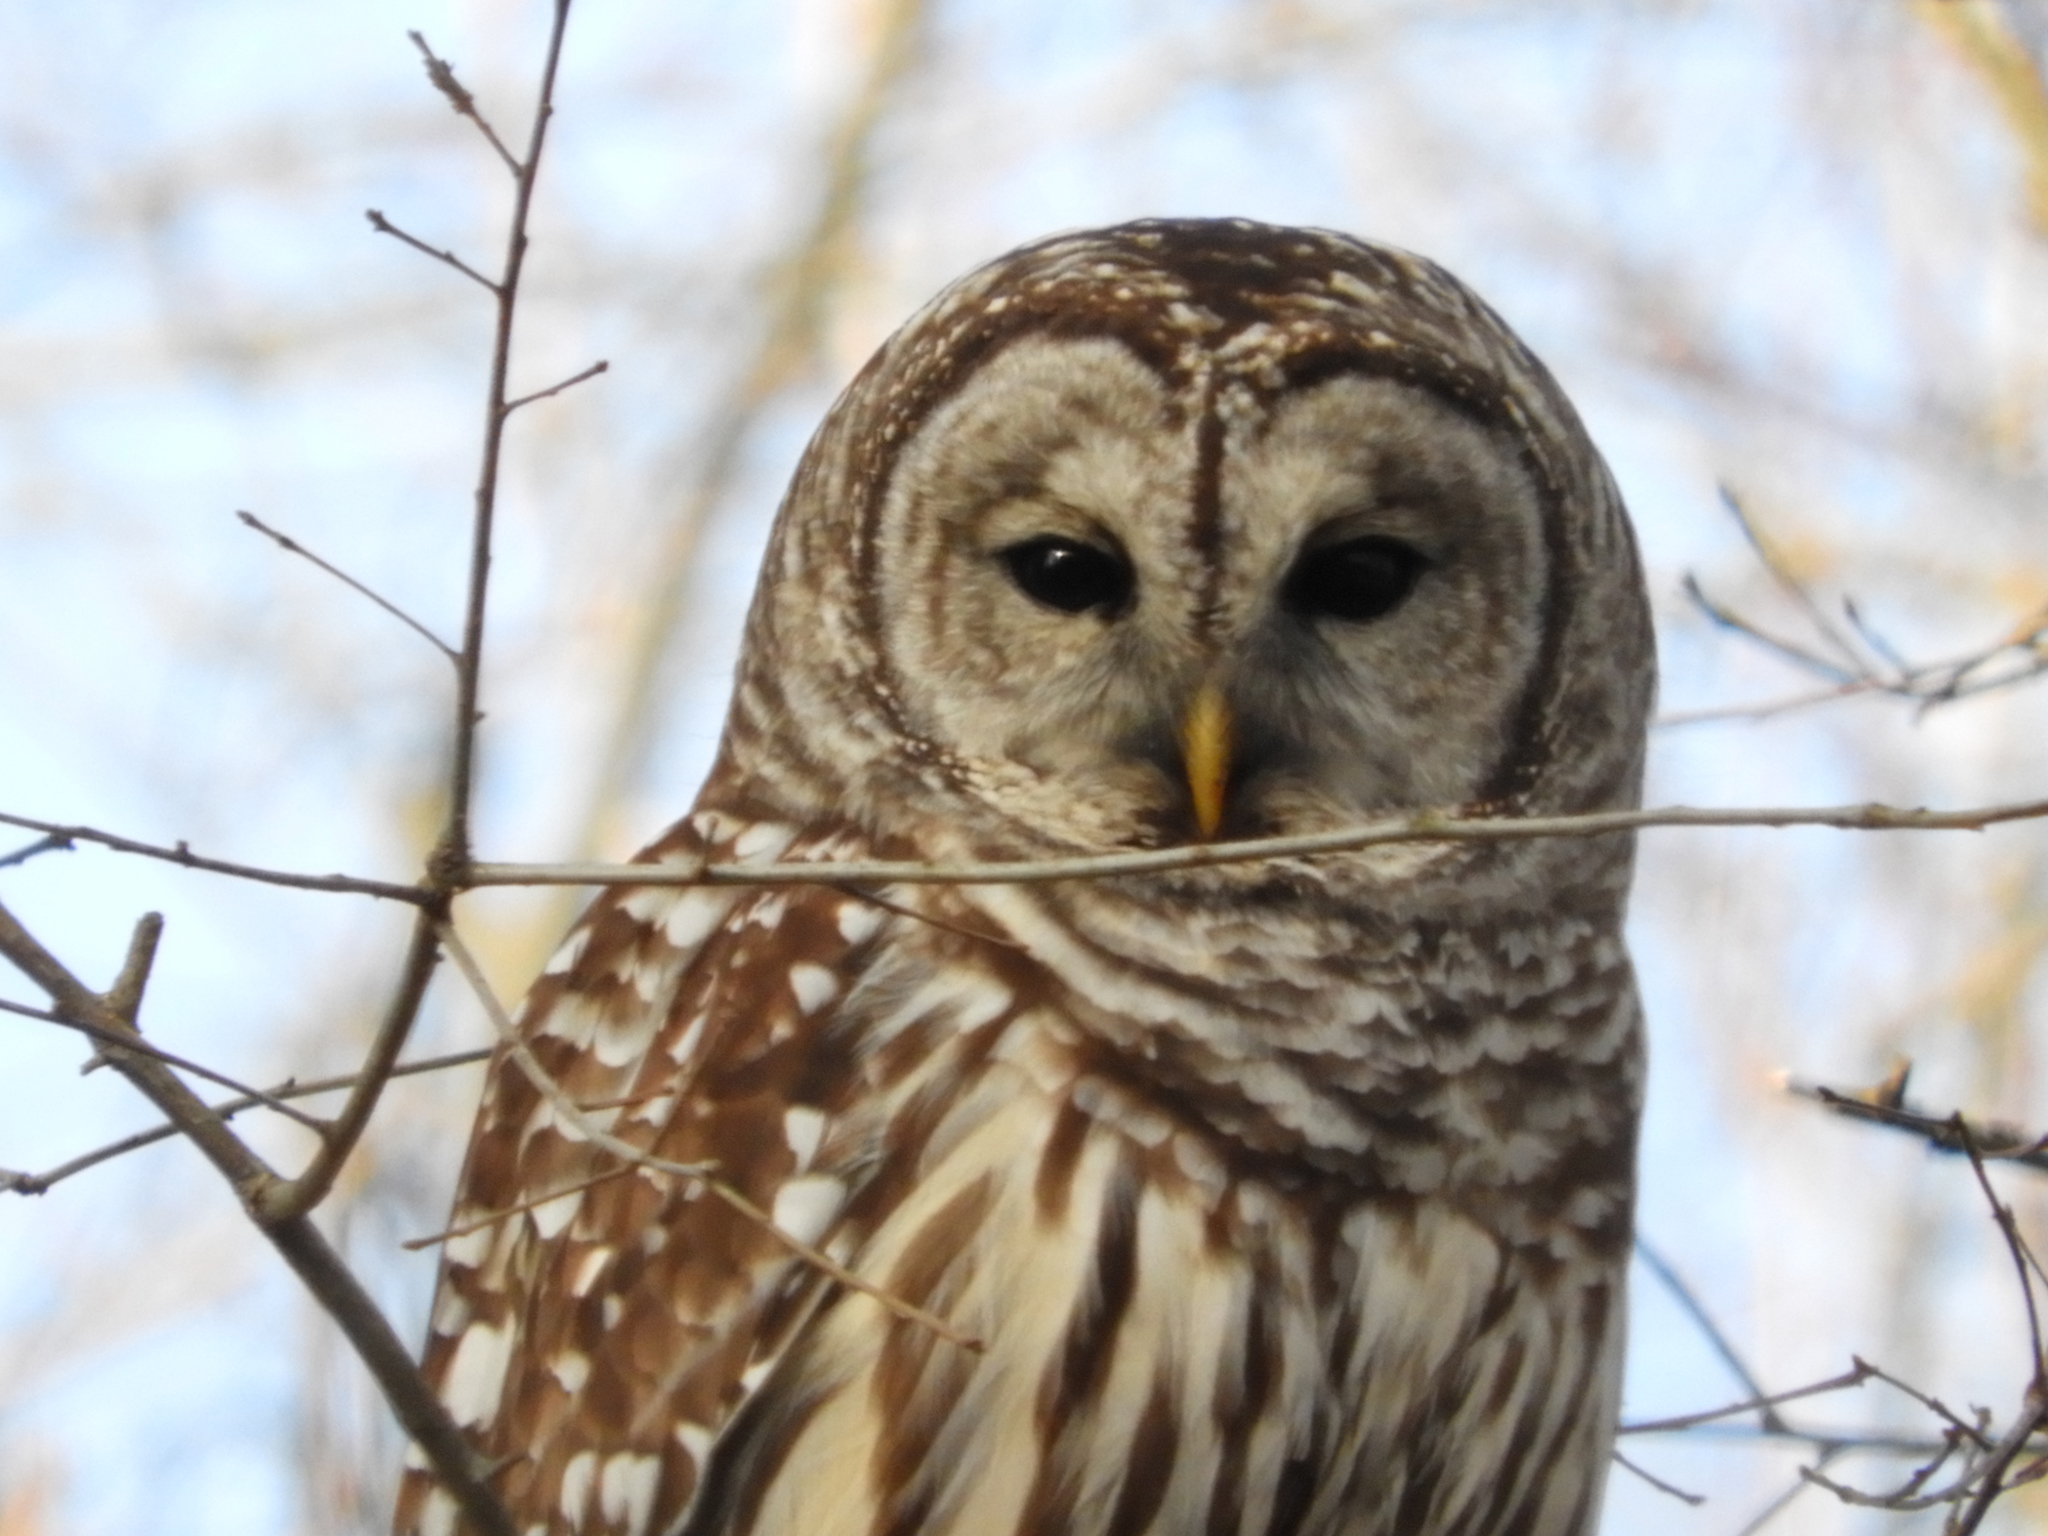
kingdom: Animalia
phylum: Chordata
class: Aves
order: Strigiformes
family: Strigidae
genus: Strix
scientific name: Strix varia
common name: Barred owl
